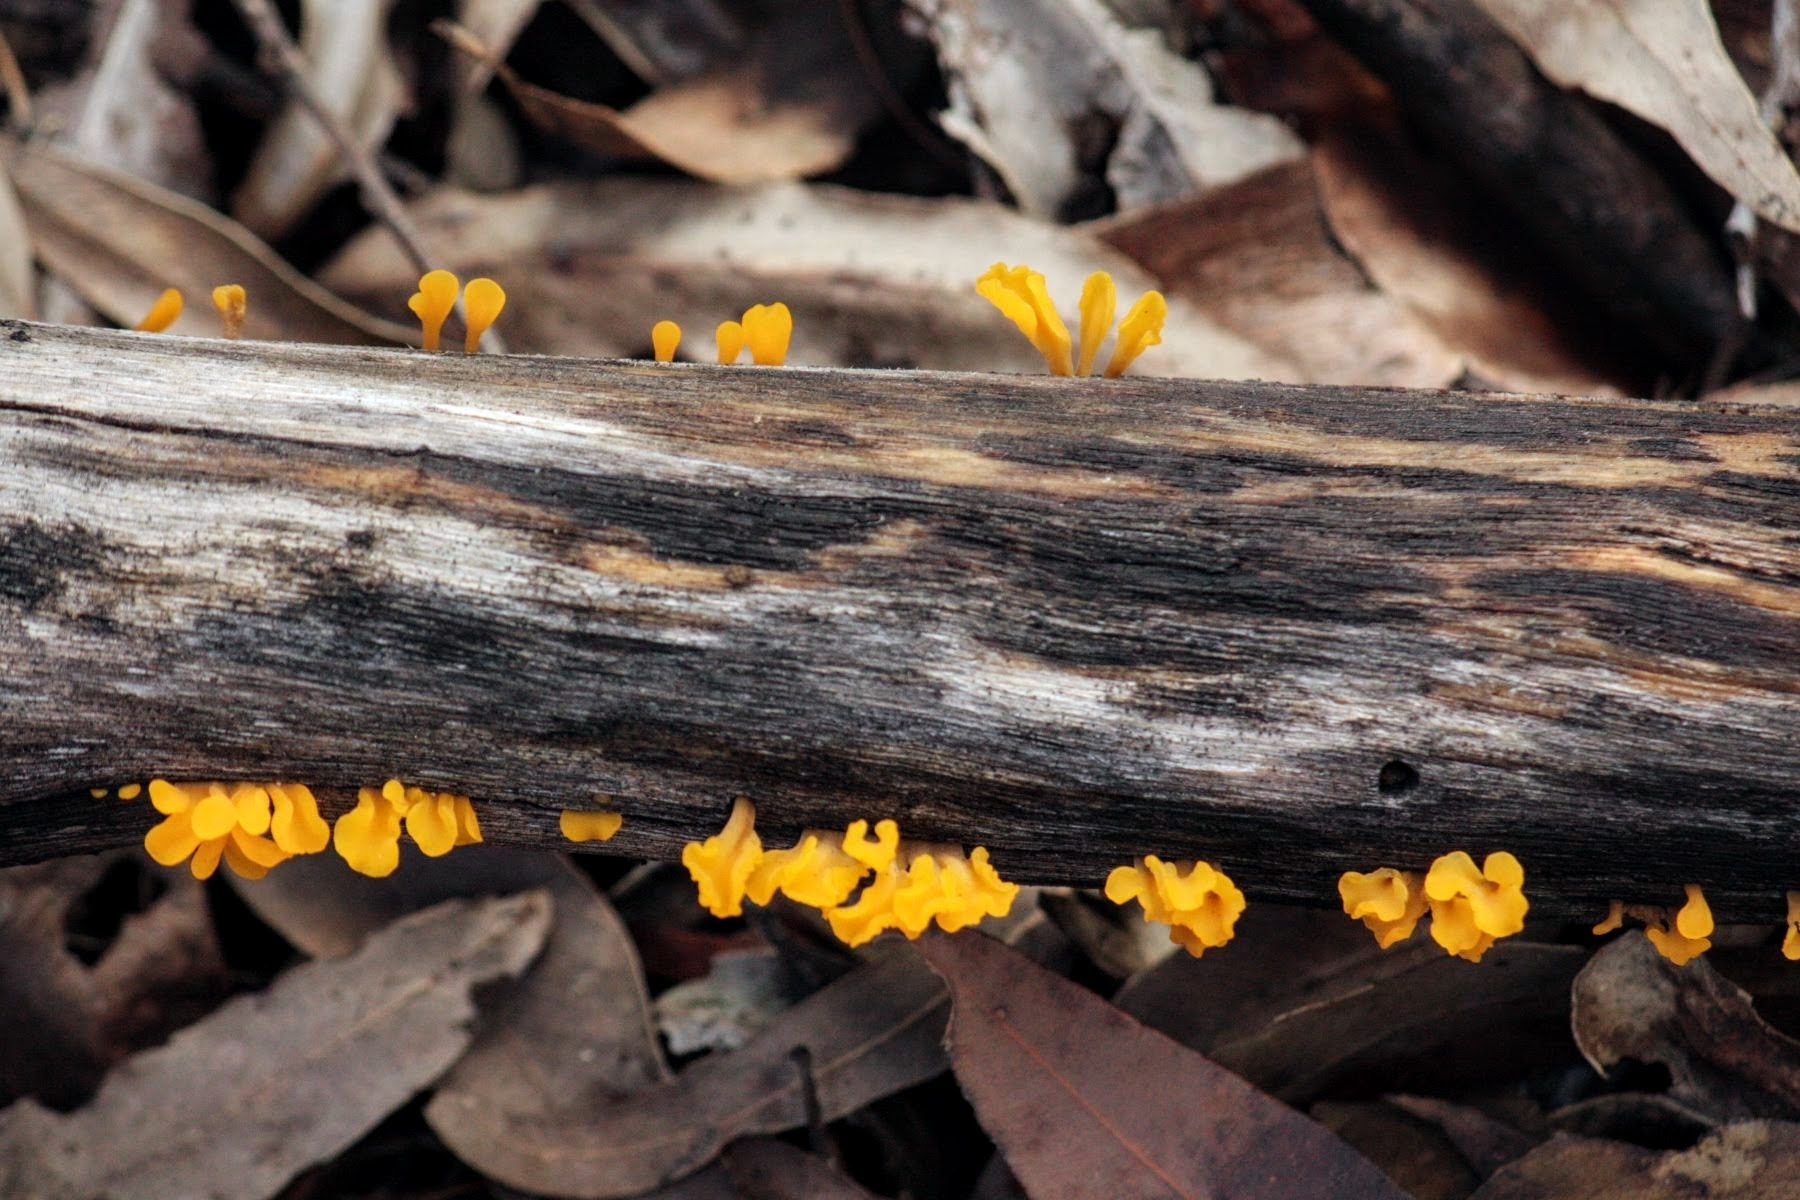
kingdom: Fungi
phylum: Basidiomycota
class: Dacrymycetes
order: Dacrymycetales
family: Dacrymycetaceae
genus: Dacrymyces
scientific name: Dacrymyces spathularius
